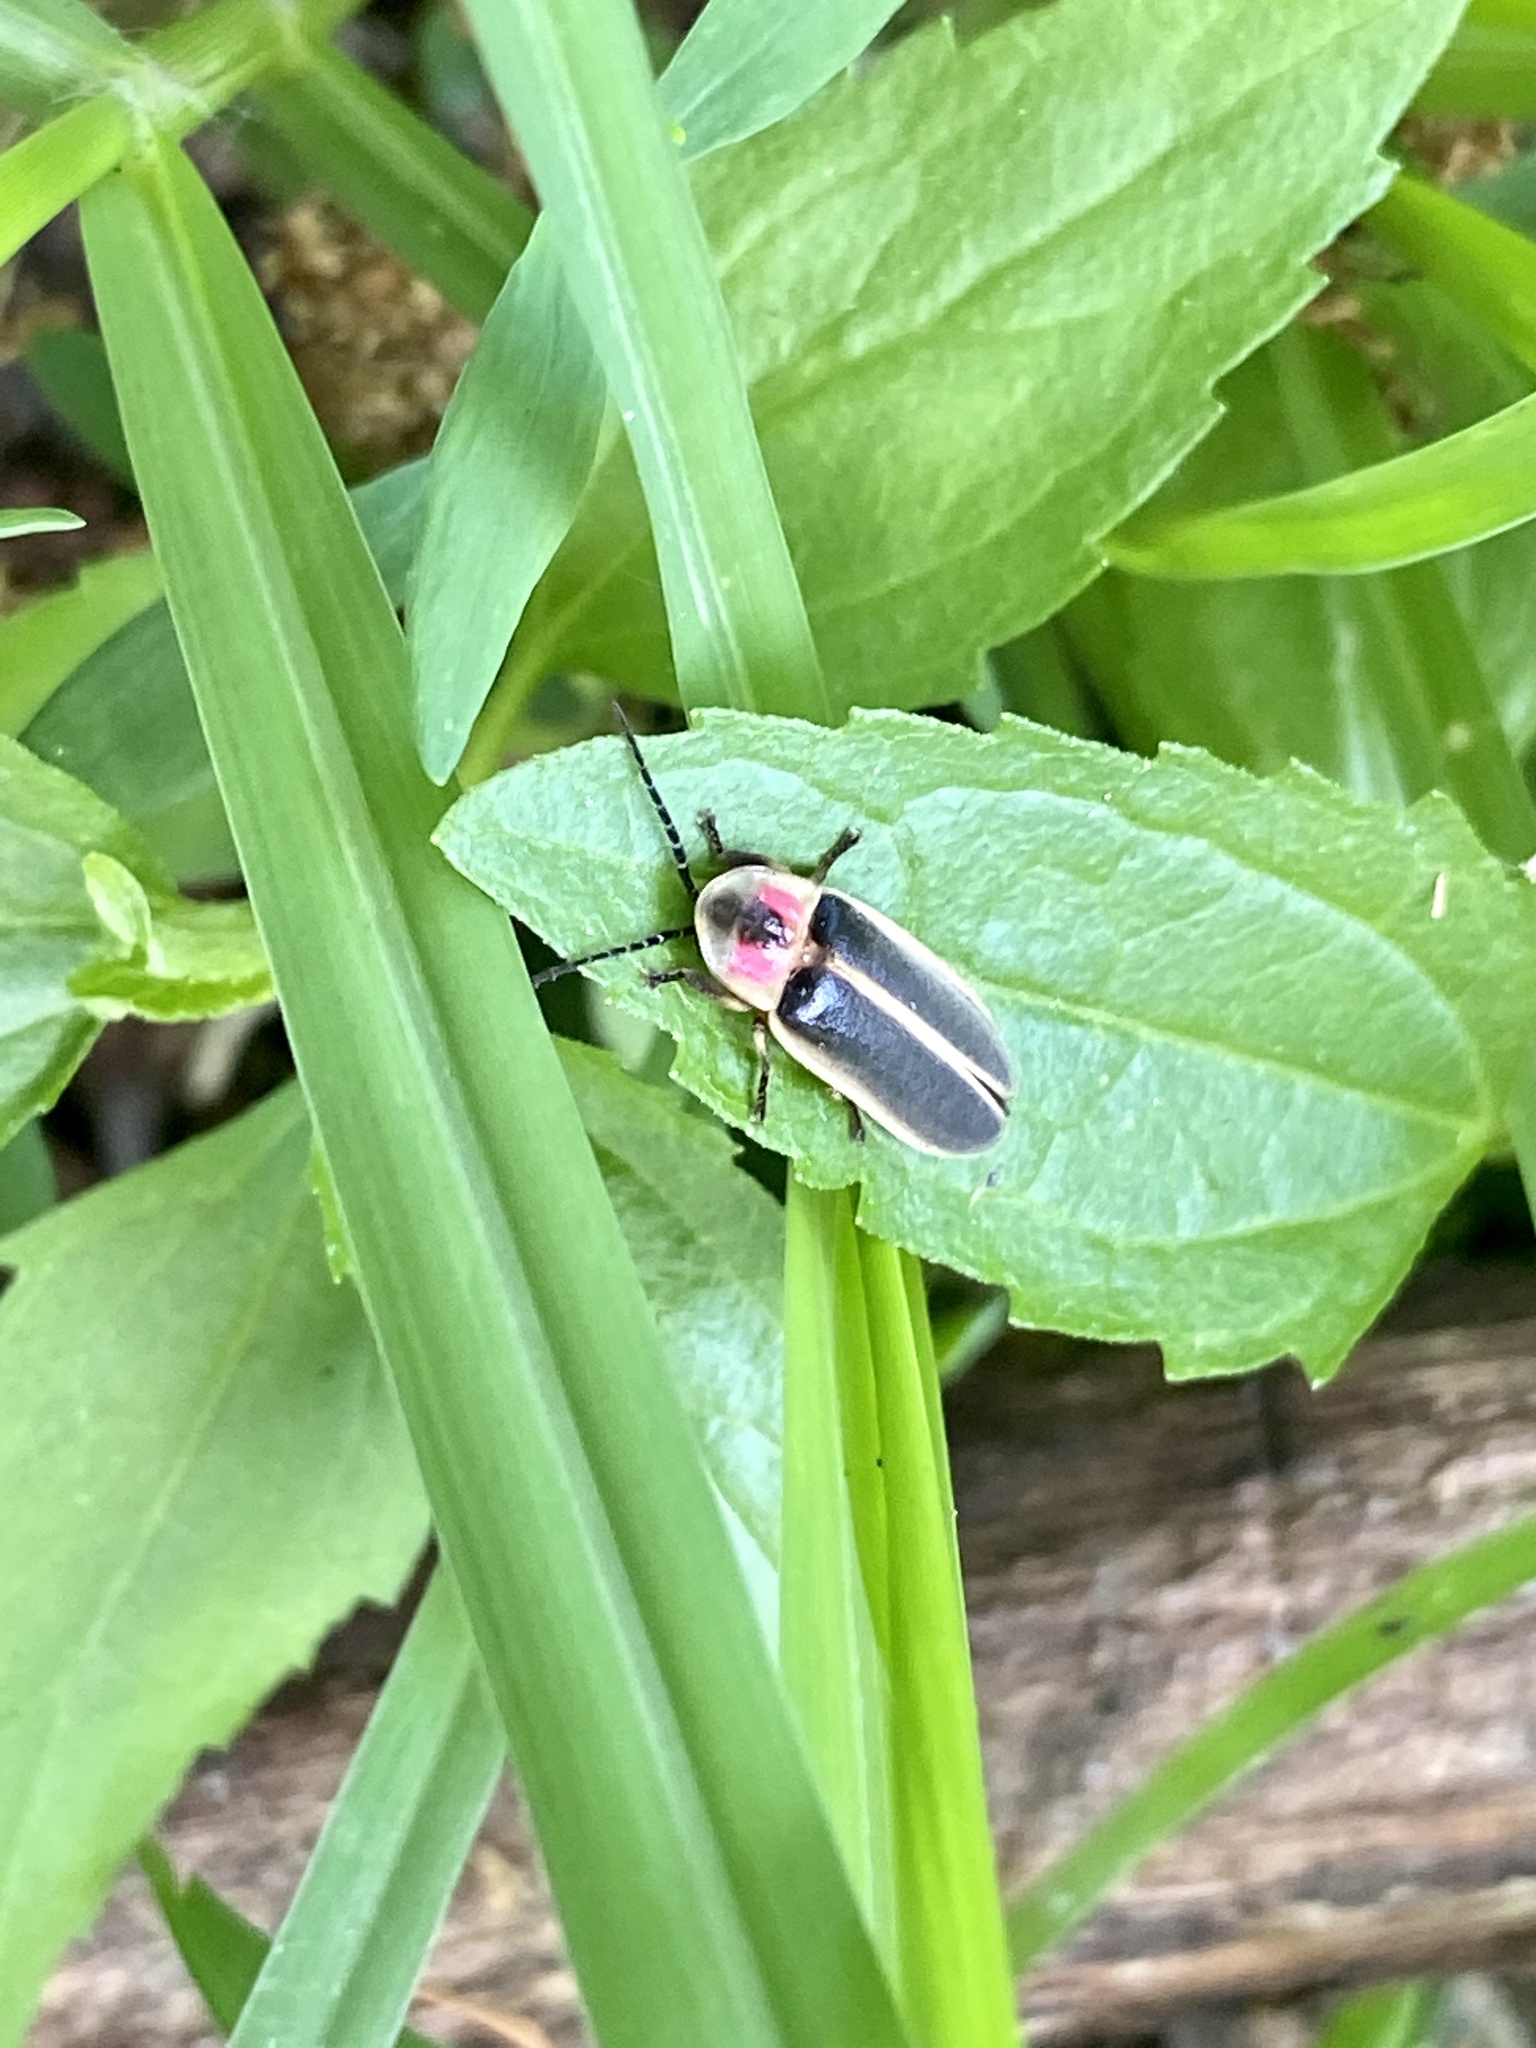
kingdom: Animalia
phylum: Arthropoda
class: Insecta
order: Coleoptera
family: Lampyridae
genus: Photinus
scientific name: Photinus pyralis
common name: Big dipper firefly
